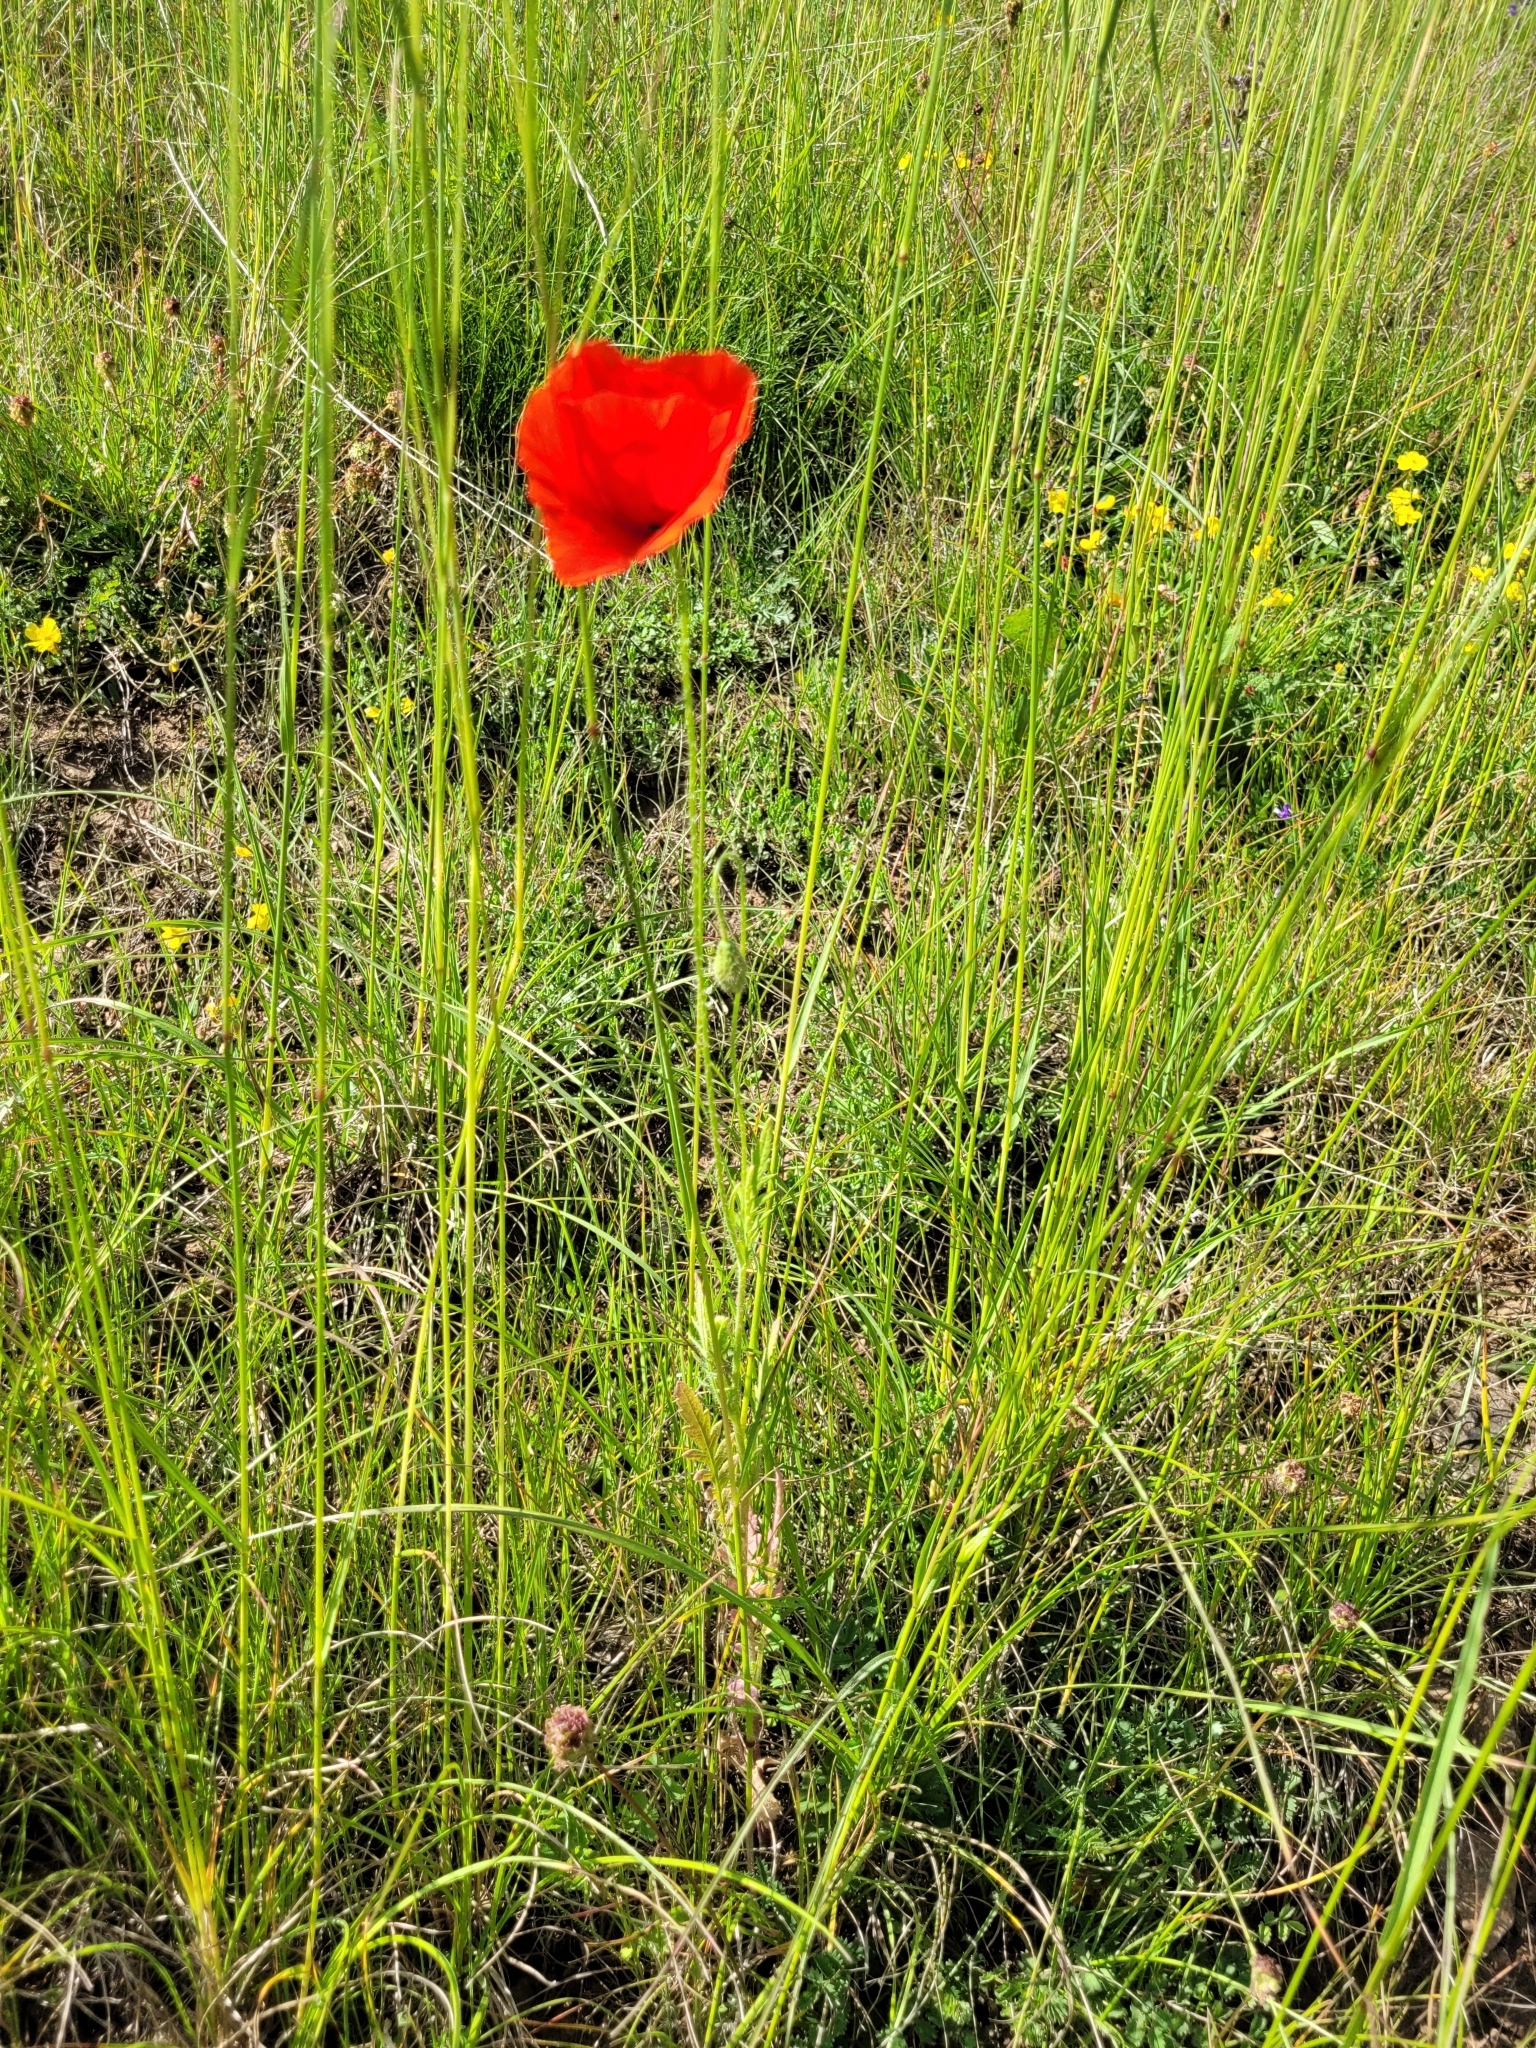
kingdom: Plantae
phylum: Tracheophyta
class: Magnoliopsida
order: Ranunculales
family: Papaveraceae
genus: Papaver
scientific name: Papaver rhoeas
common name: Corn poppy
